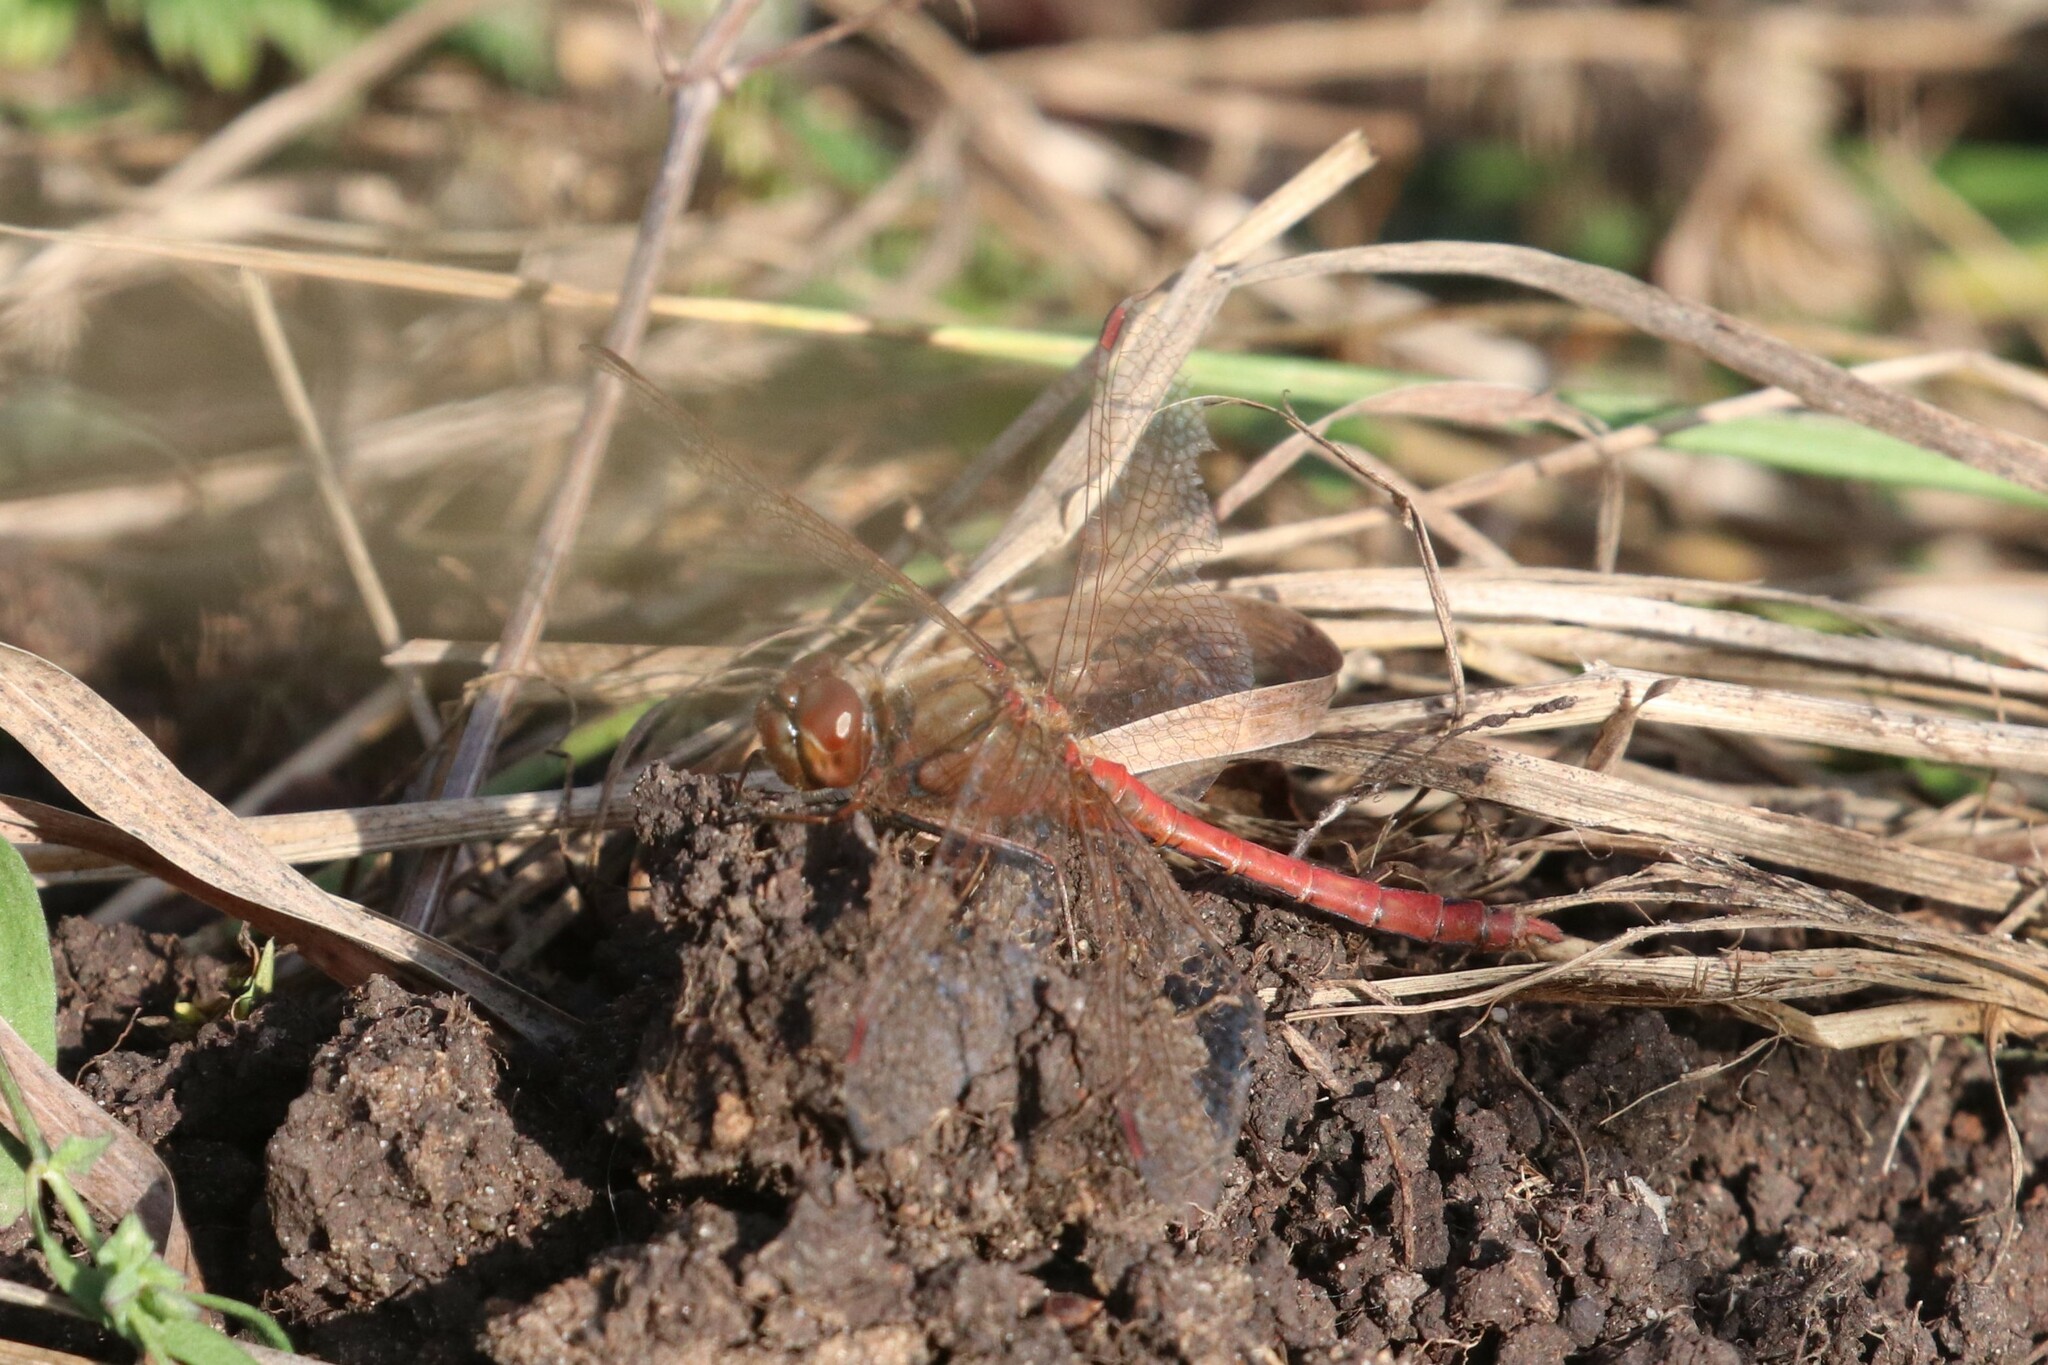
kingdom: Animalia
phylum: Arthropoda
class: Insecta
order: Odonata
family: Libellulidae
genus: Sympetrum
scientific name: Sympetrum vulgatum
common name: Vagrant darter
